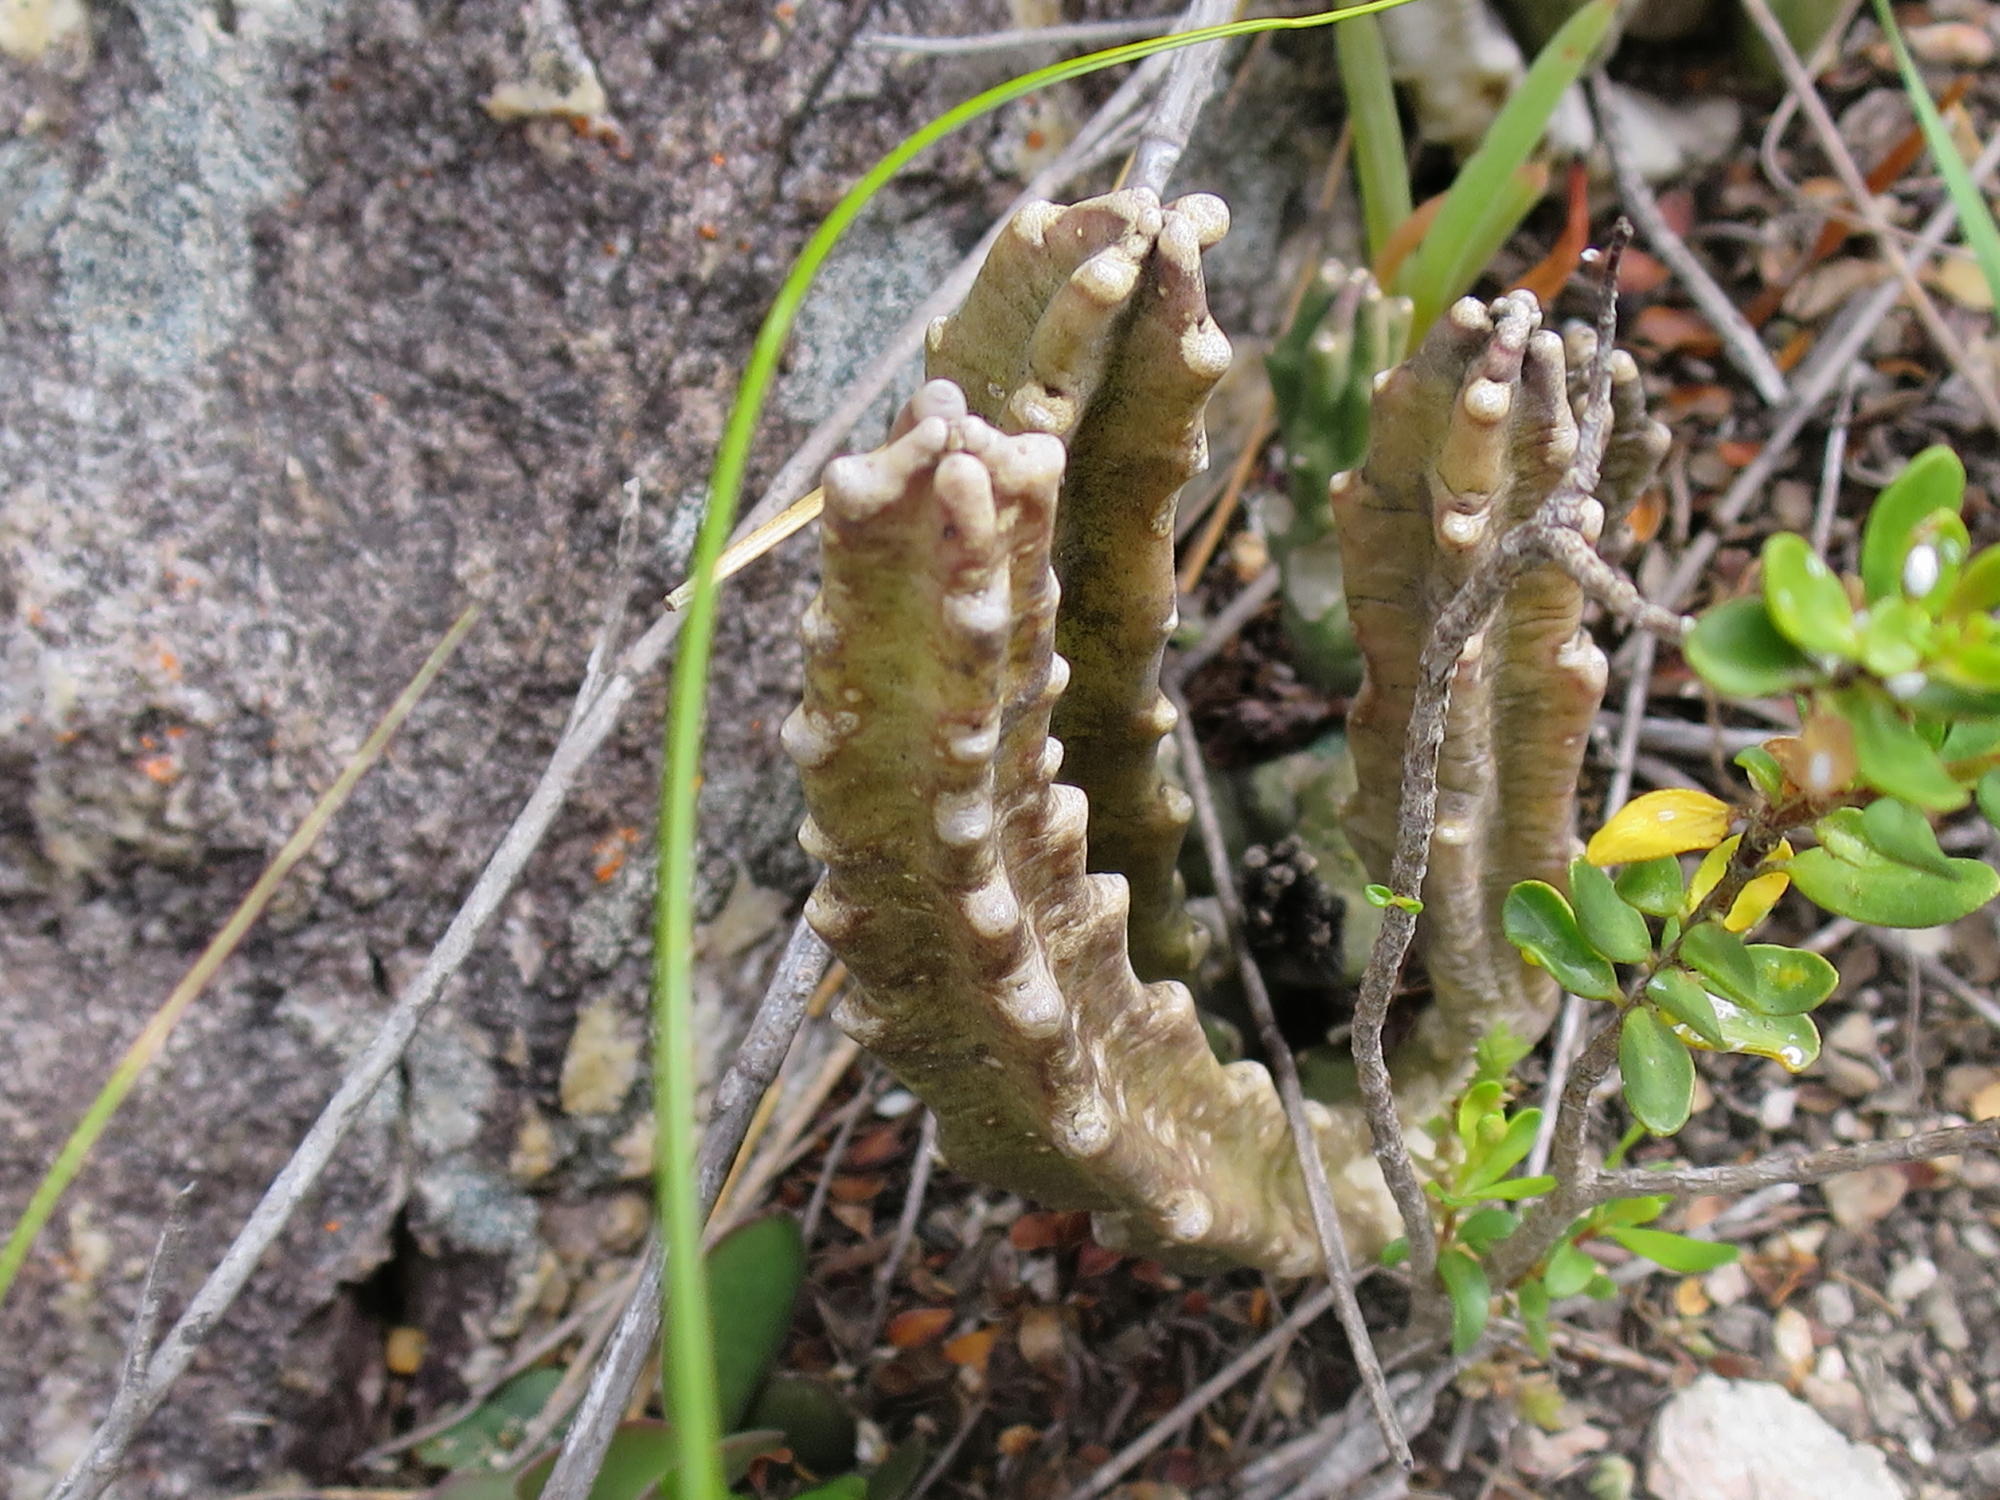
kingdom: Plantae
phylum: Tracheophyta
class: Magnoliopsida
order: Gentianales
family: Apocynaceae
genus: Ceropegia
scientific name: Ceropegia pulvinata
